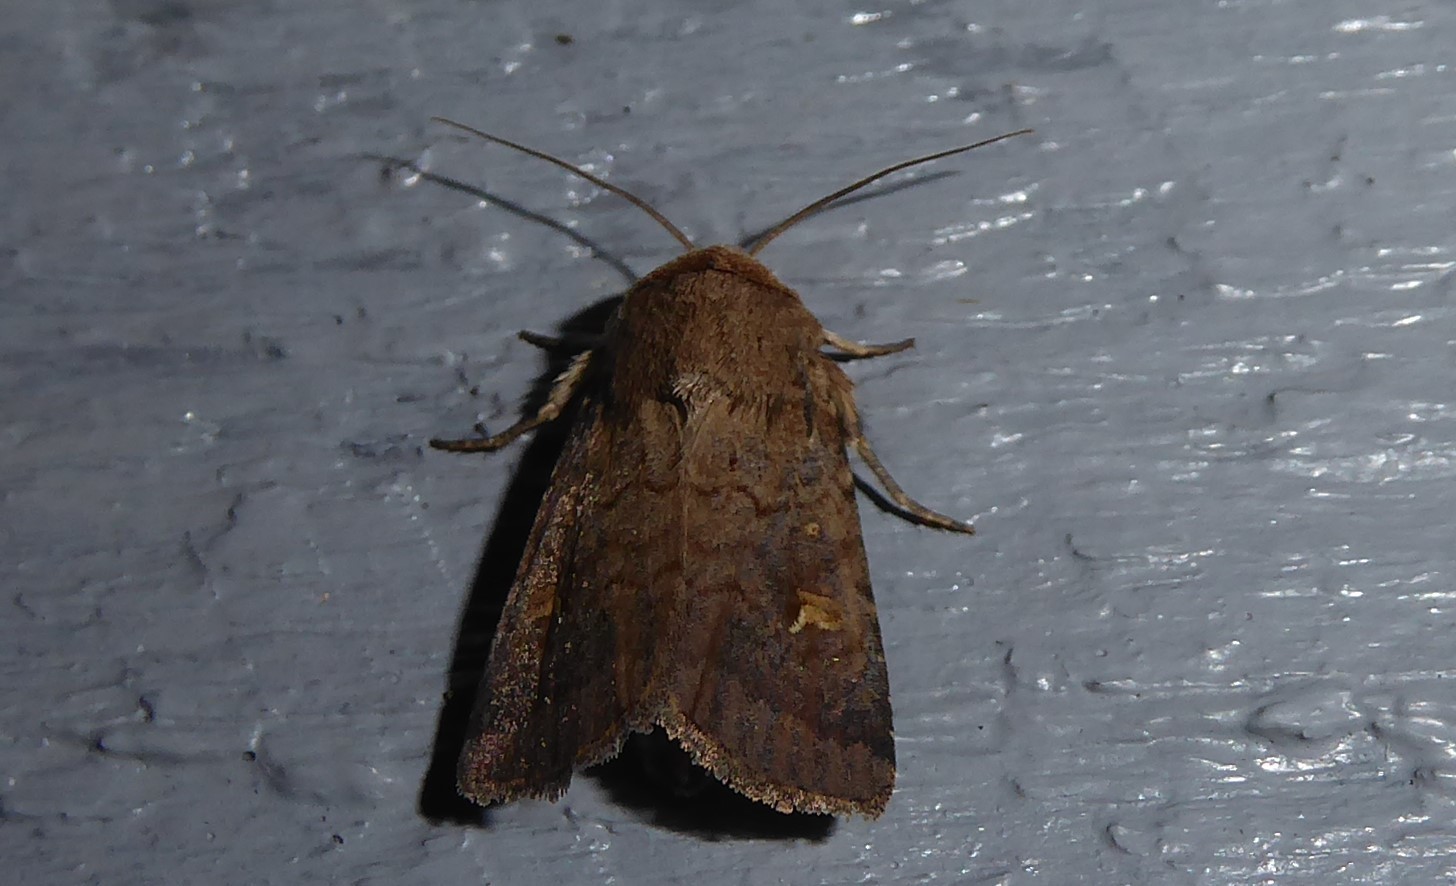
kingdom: Animalia
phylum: Arthropoda
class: Insecta
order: Lepidoptera
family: Noctuidae
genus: Proteuxoa
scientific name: Proteuxoa tetronycha
